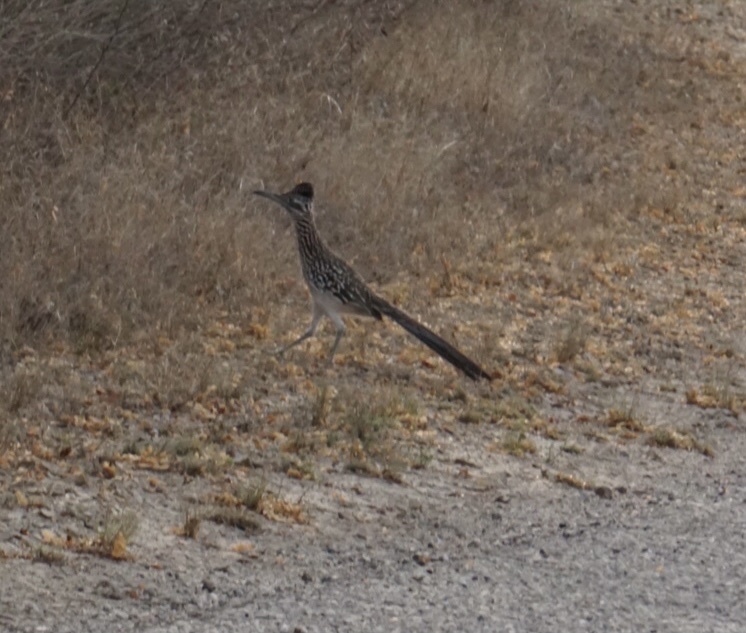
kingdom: Animalia
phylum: Chordata
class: Aves
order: Cuculiformes
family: Cuculidae
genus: Geococcyx
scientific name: Geococcyx californianus
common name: Greater roadrunner
